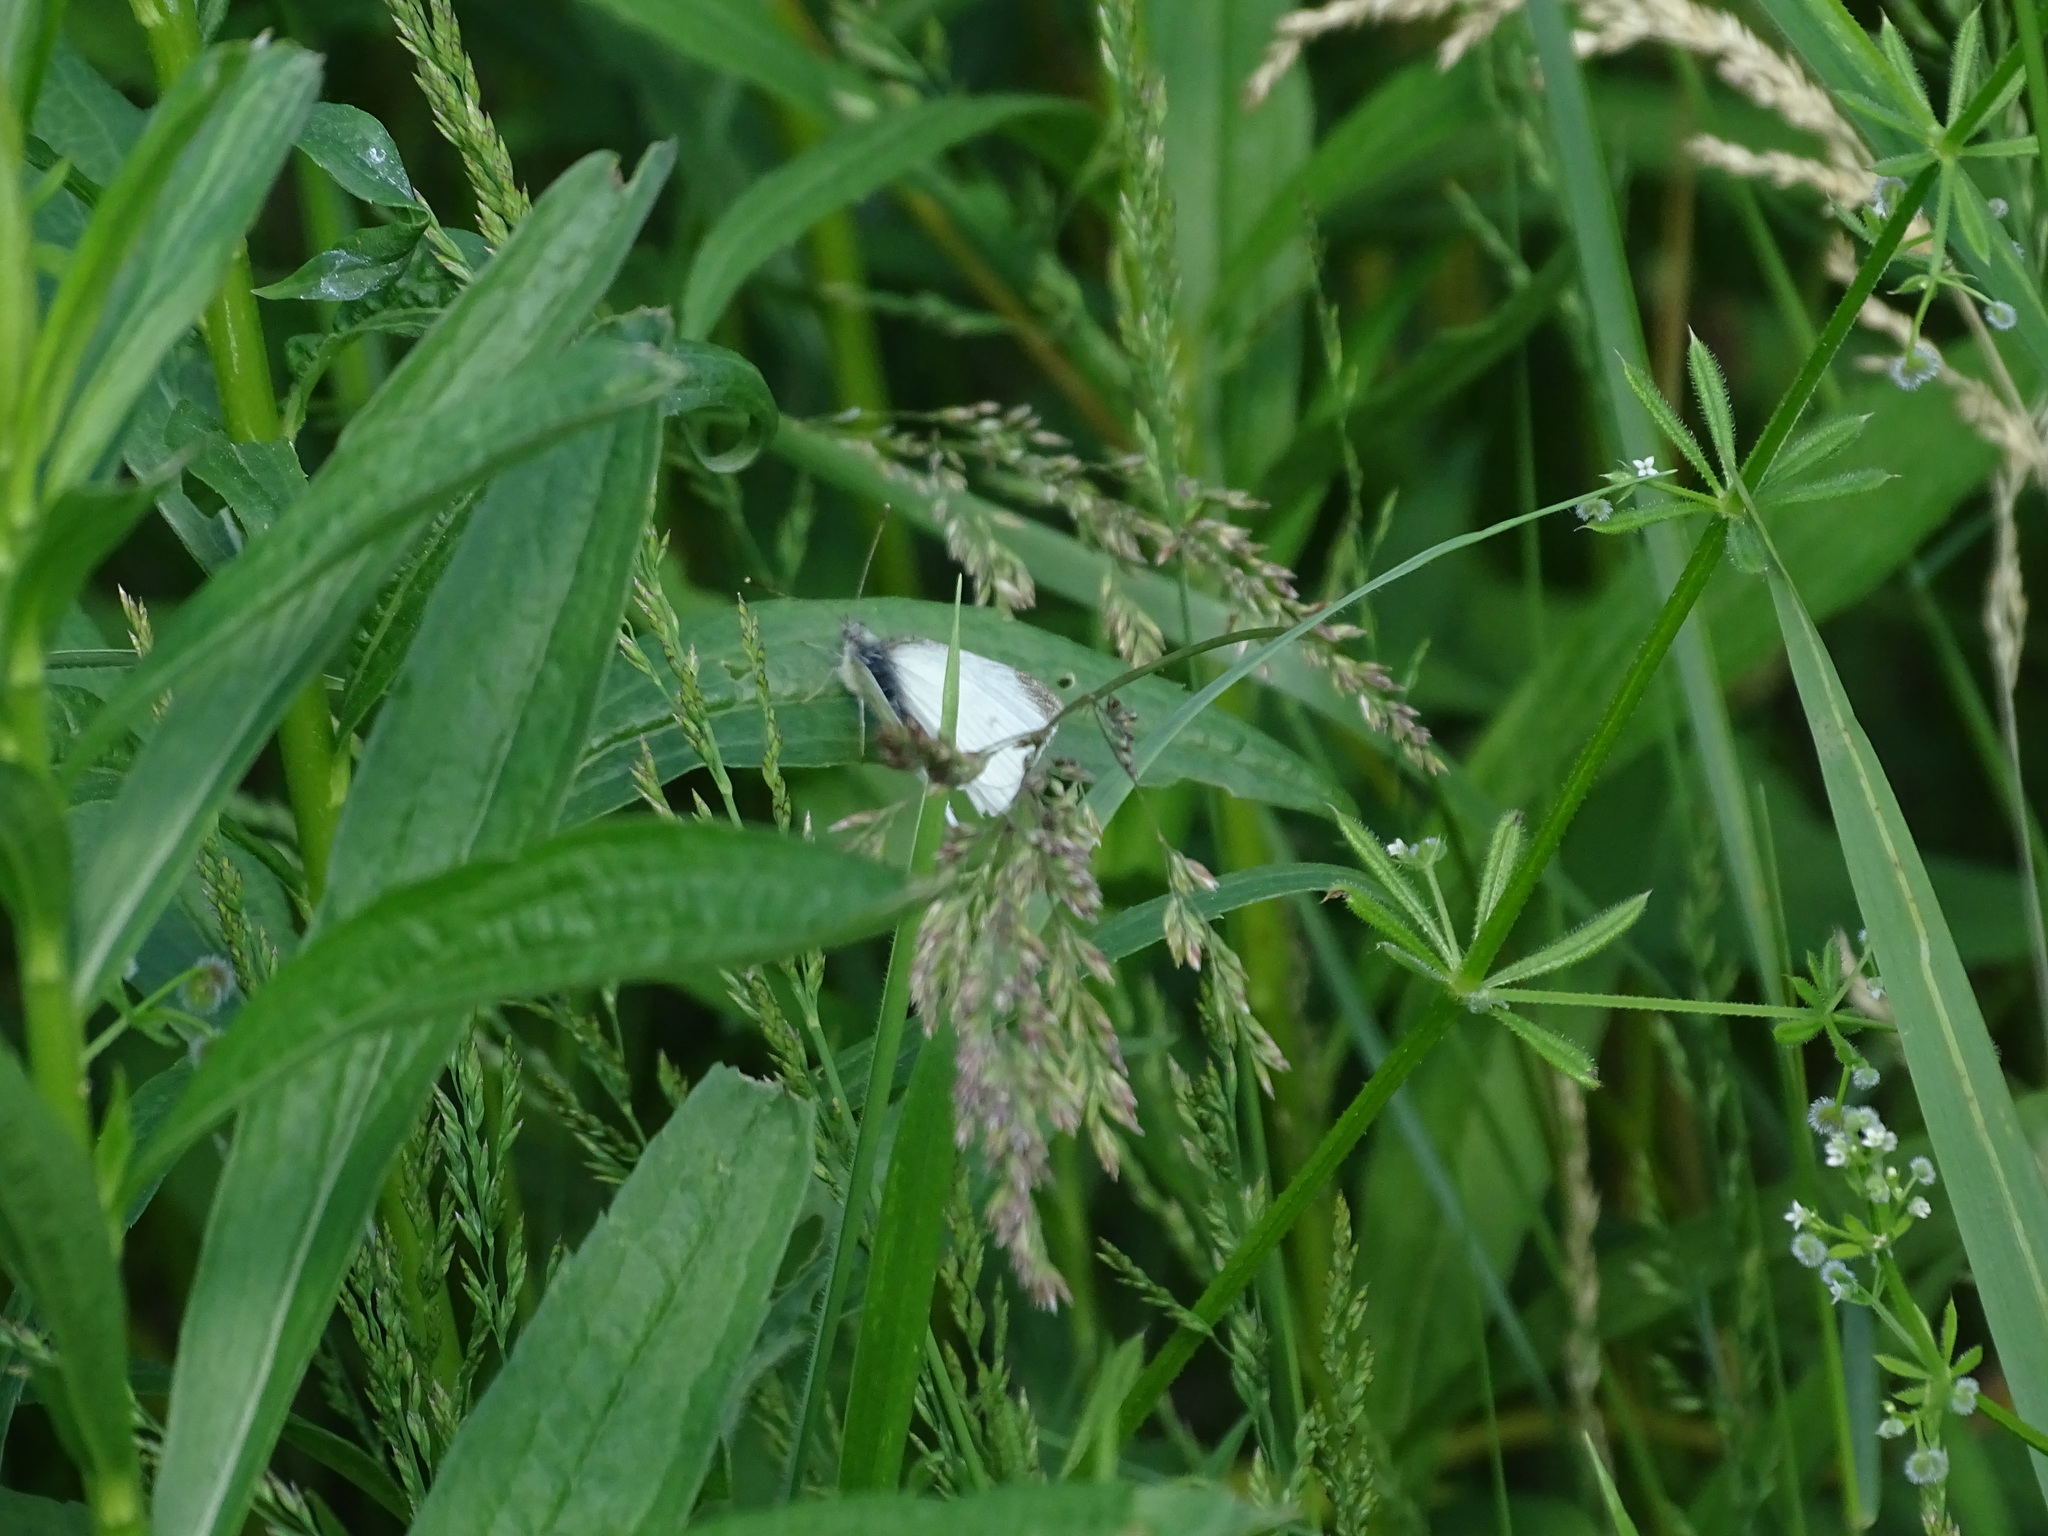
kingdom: Animalia
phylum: Arthropoda
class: Insecta
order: Lepidoptera
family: Pieridae
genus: Pieris
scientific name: Pieris rapae
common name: Small white
